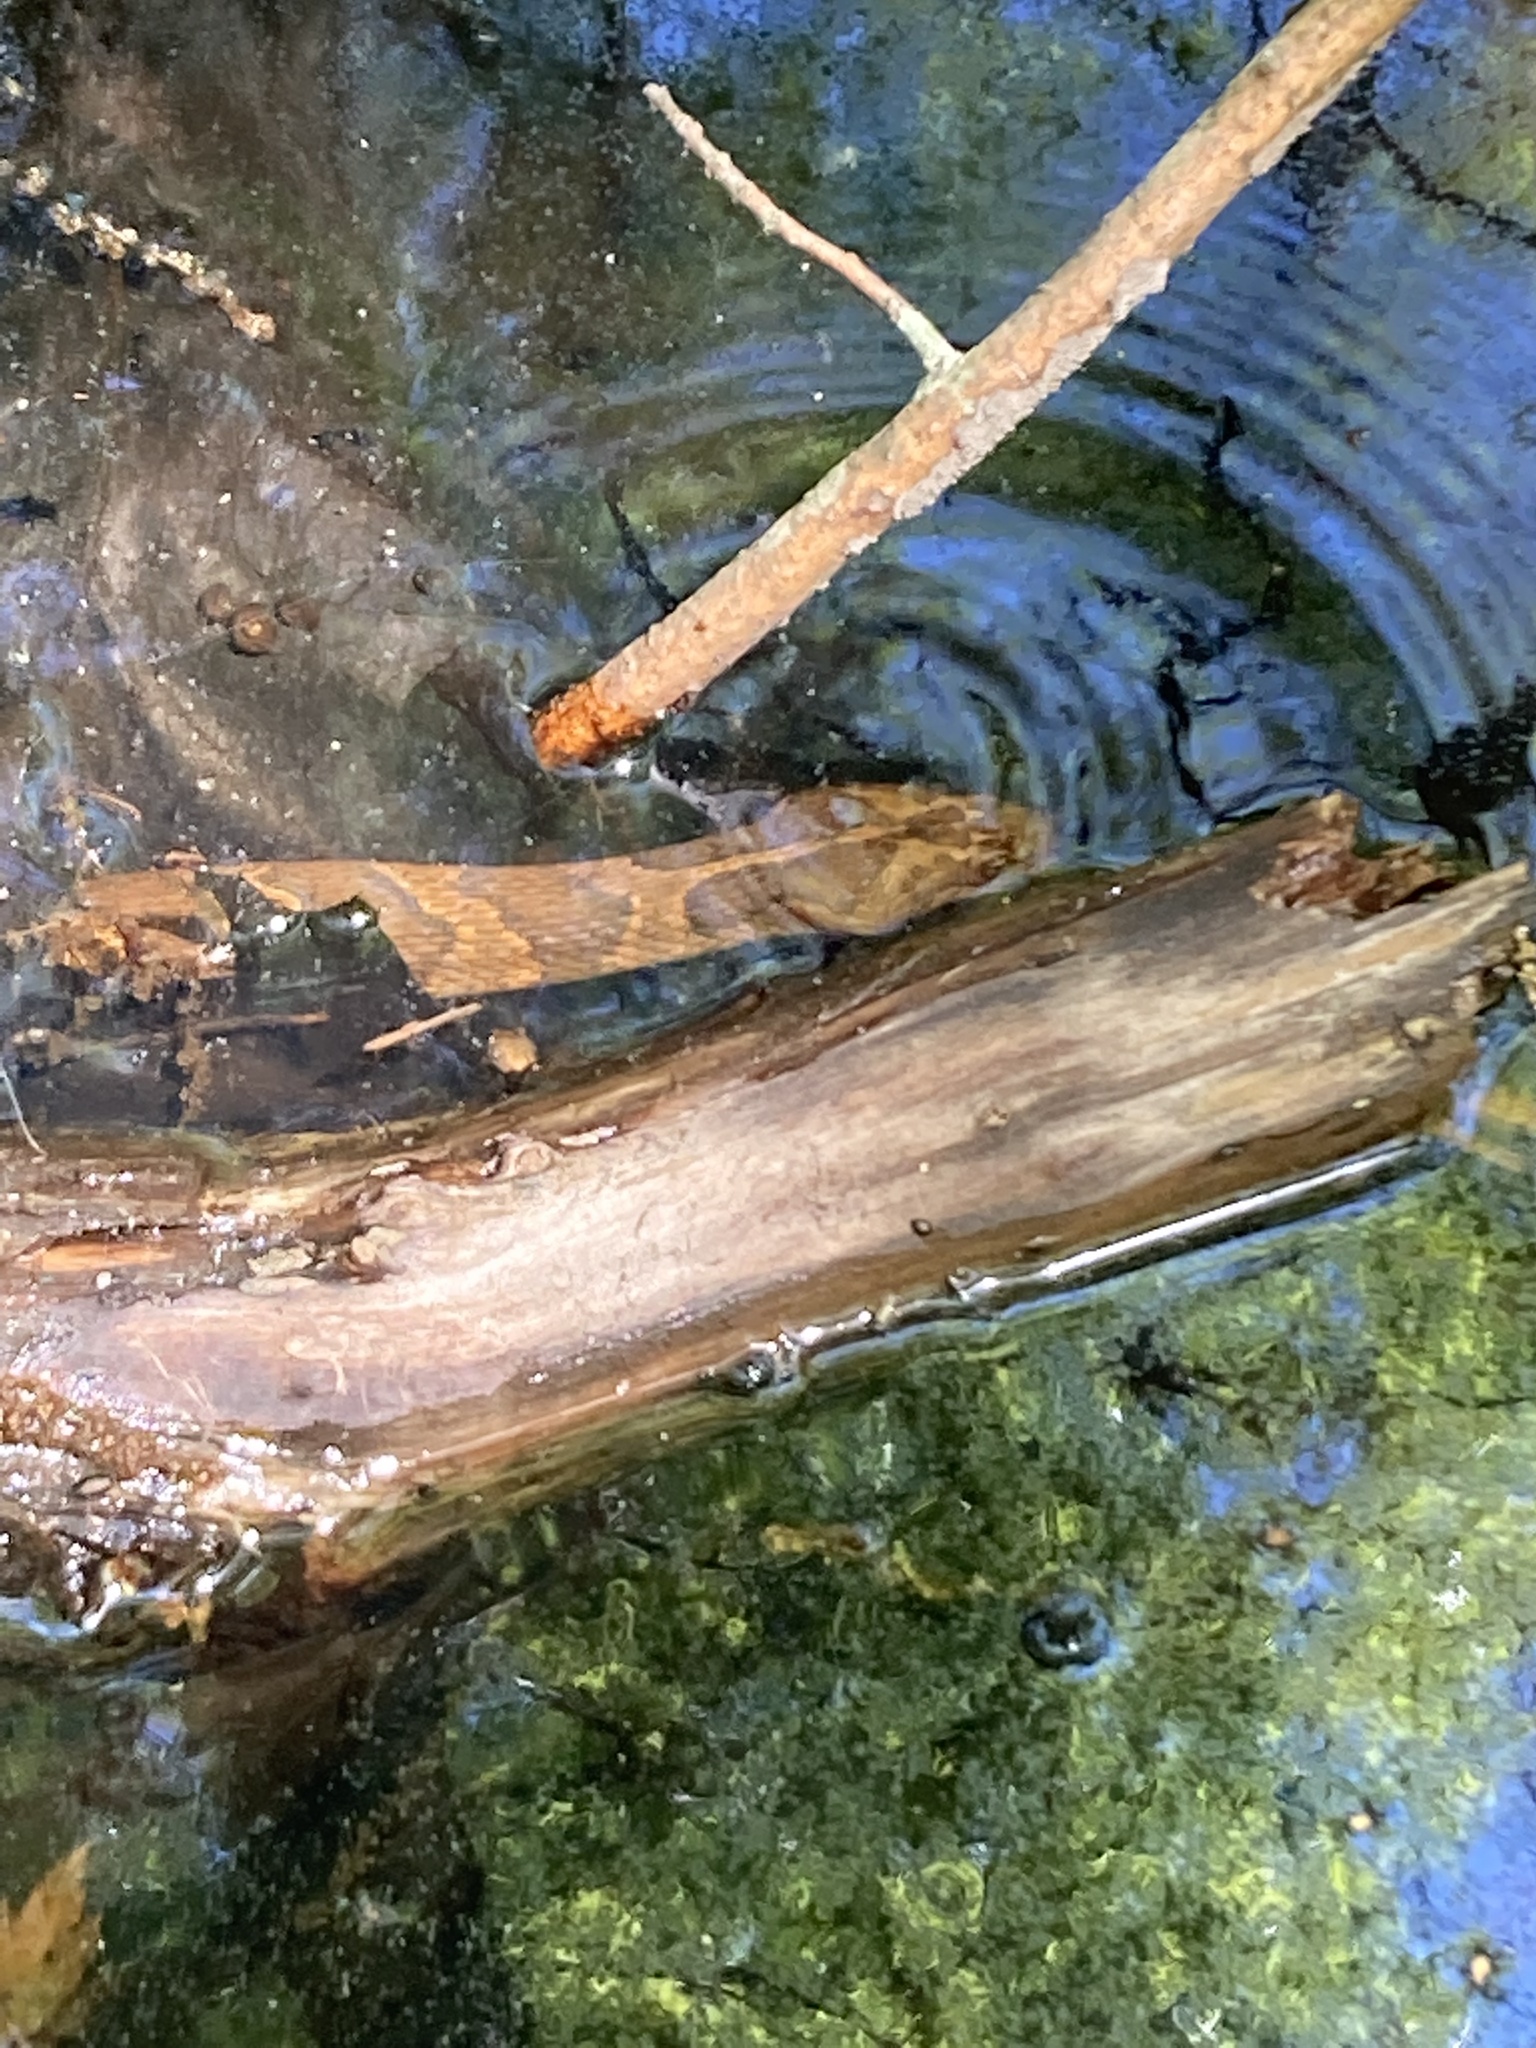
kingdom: Animalia
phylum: Chordata
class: Squamata
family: Colubridae
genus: Nerodia
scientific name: Nerodia sipedon
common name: Northern water snake
